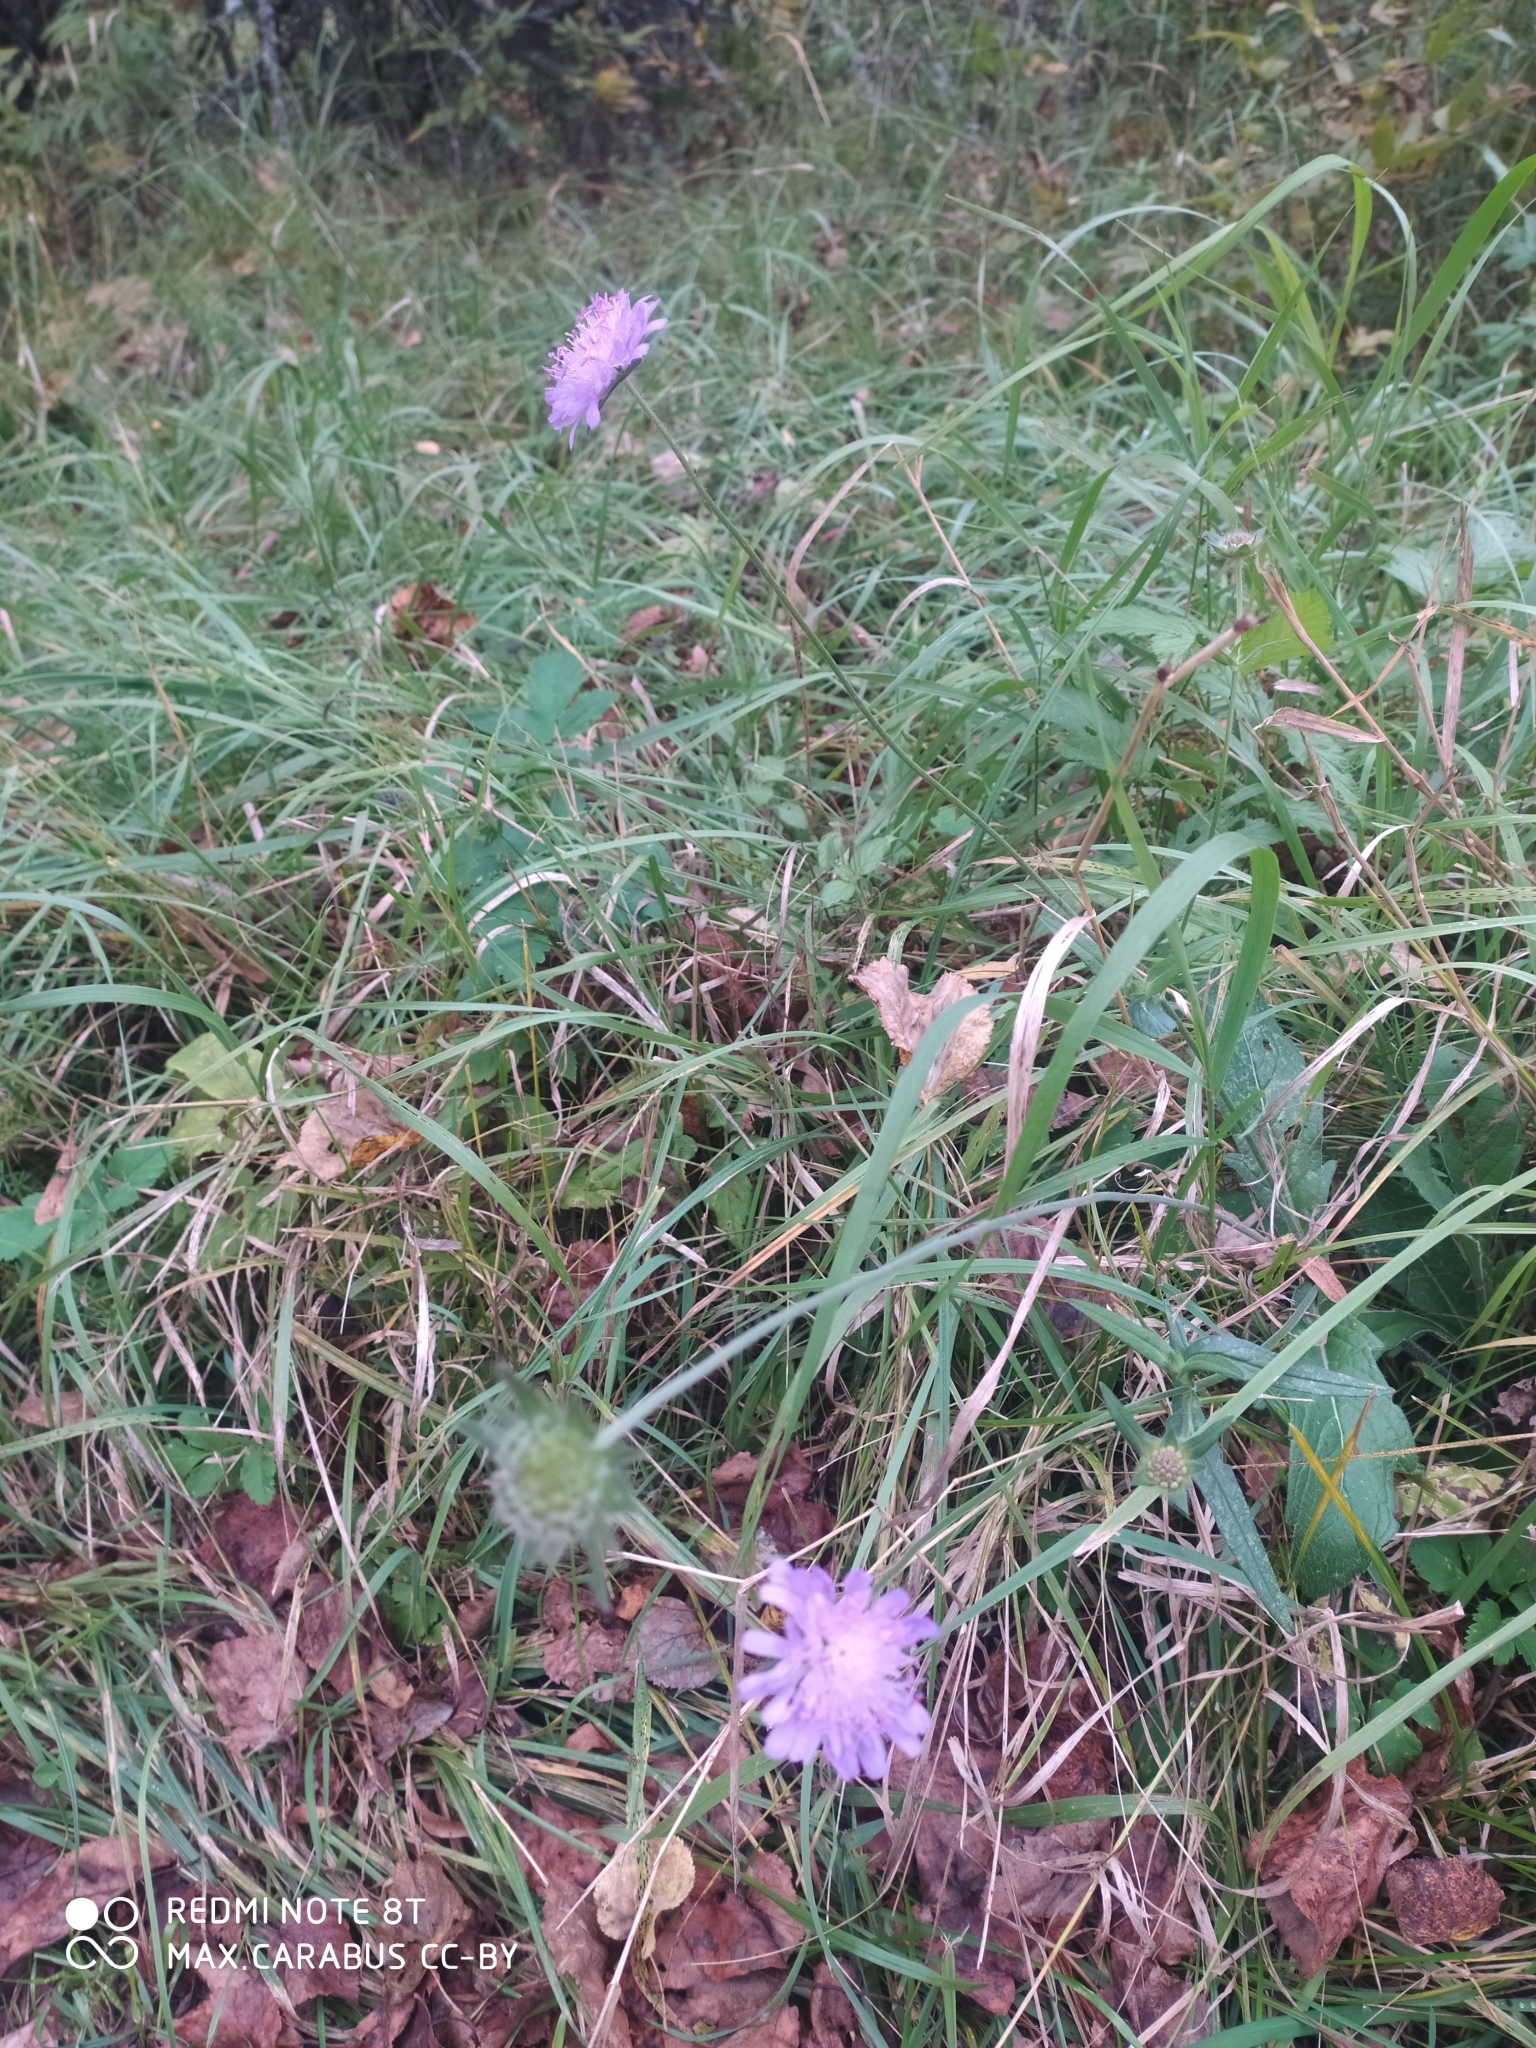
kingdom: Plantae
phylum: Tracheophyta
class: Magnoliopsida
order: Dipsacales
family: Caprifoliaceae
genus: Knautia
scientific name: Knautia arvensis
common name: Field scabiosa
